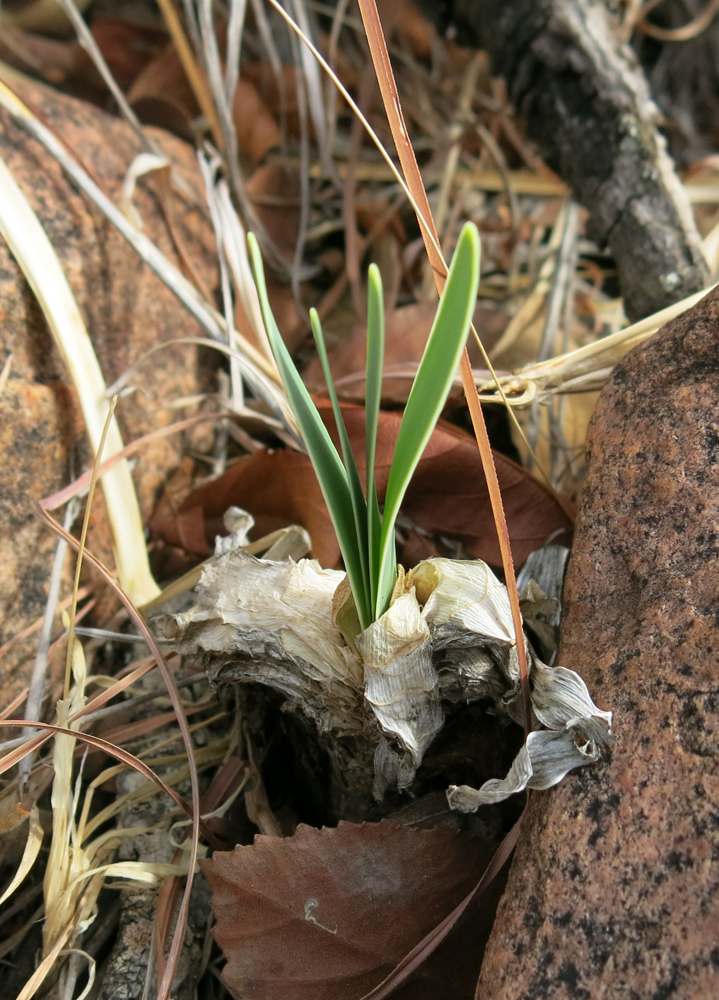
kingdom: Plantae
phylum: Tracheophyta
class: Liliopsida
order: Asparagales
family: Amaryllidaceae
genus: Boophone
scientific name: Boophone disticha
